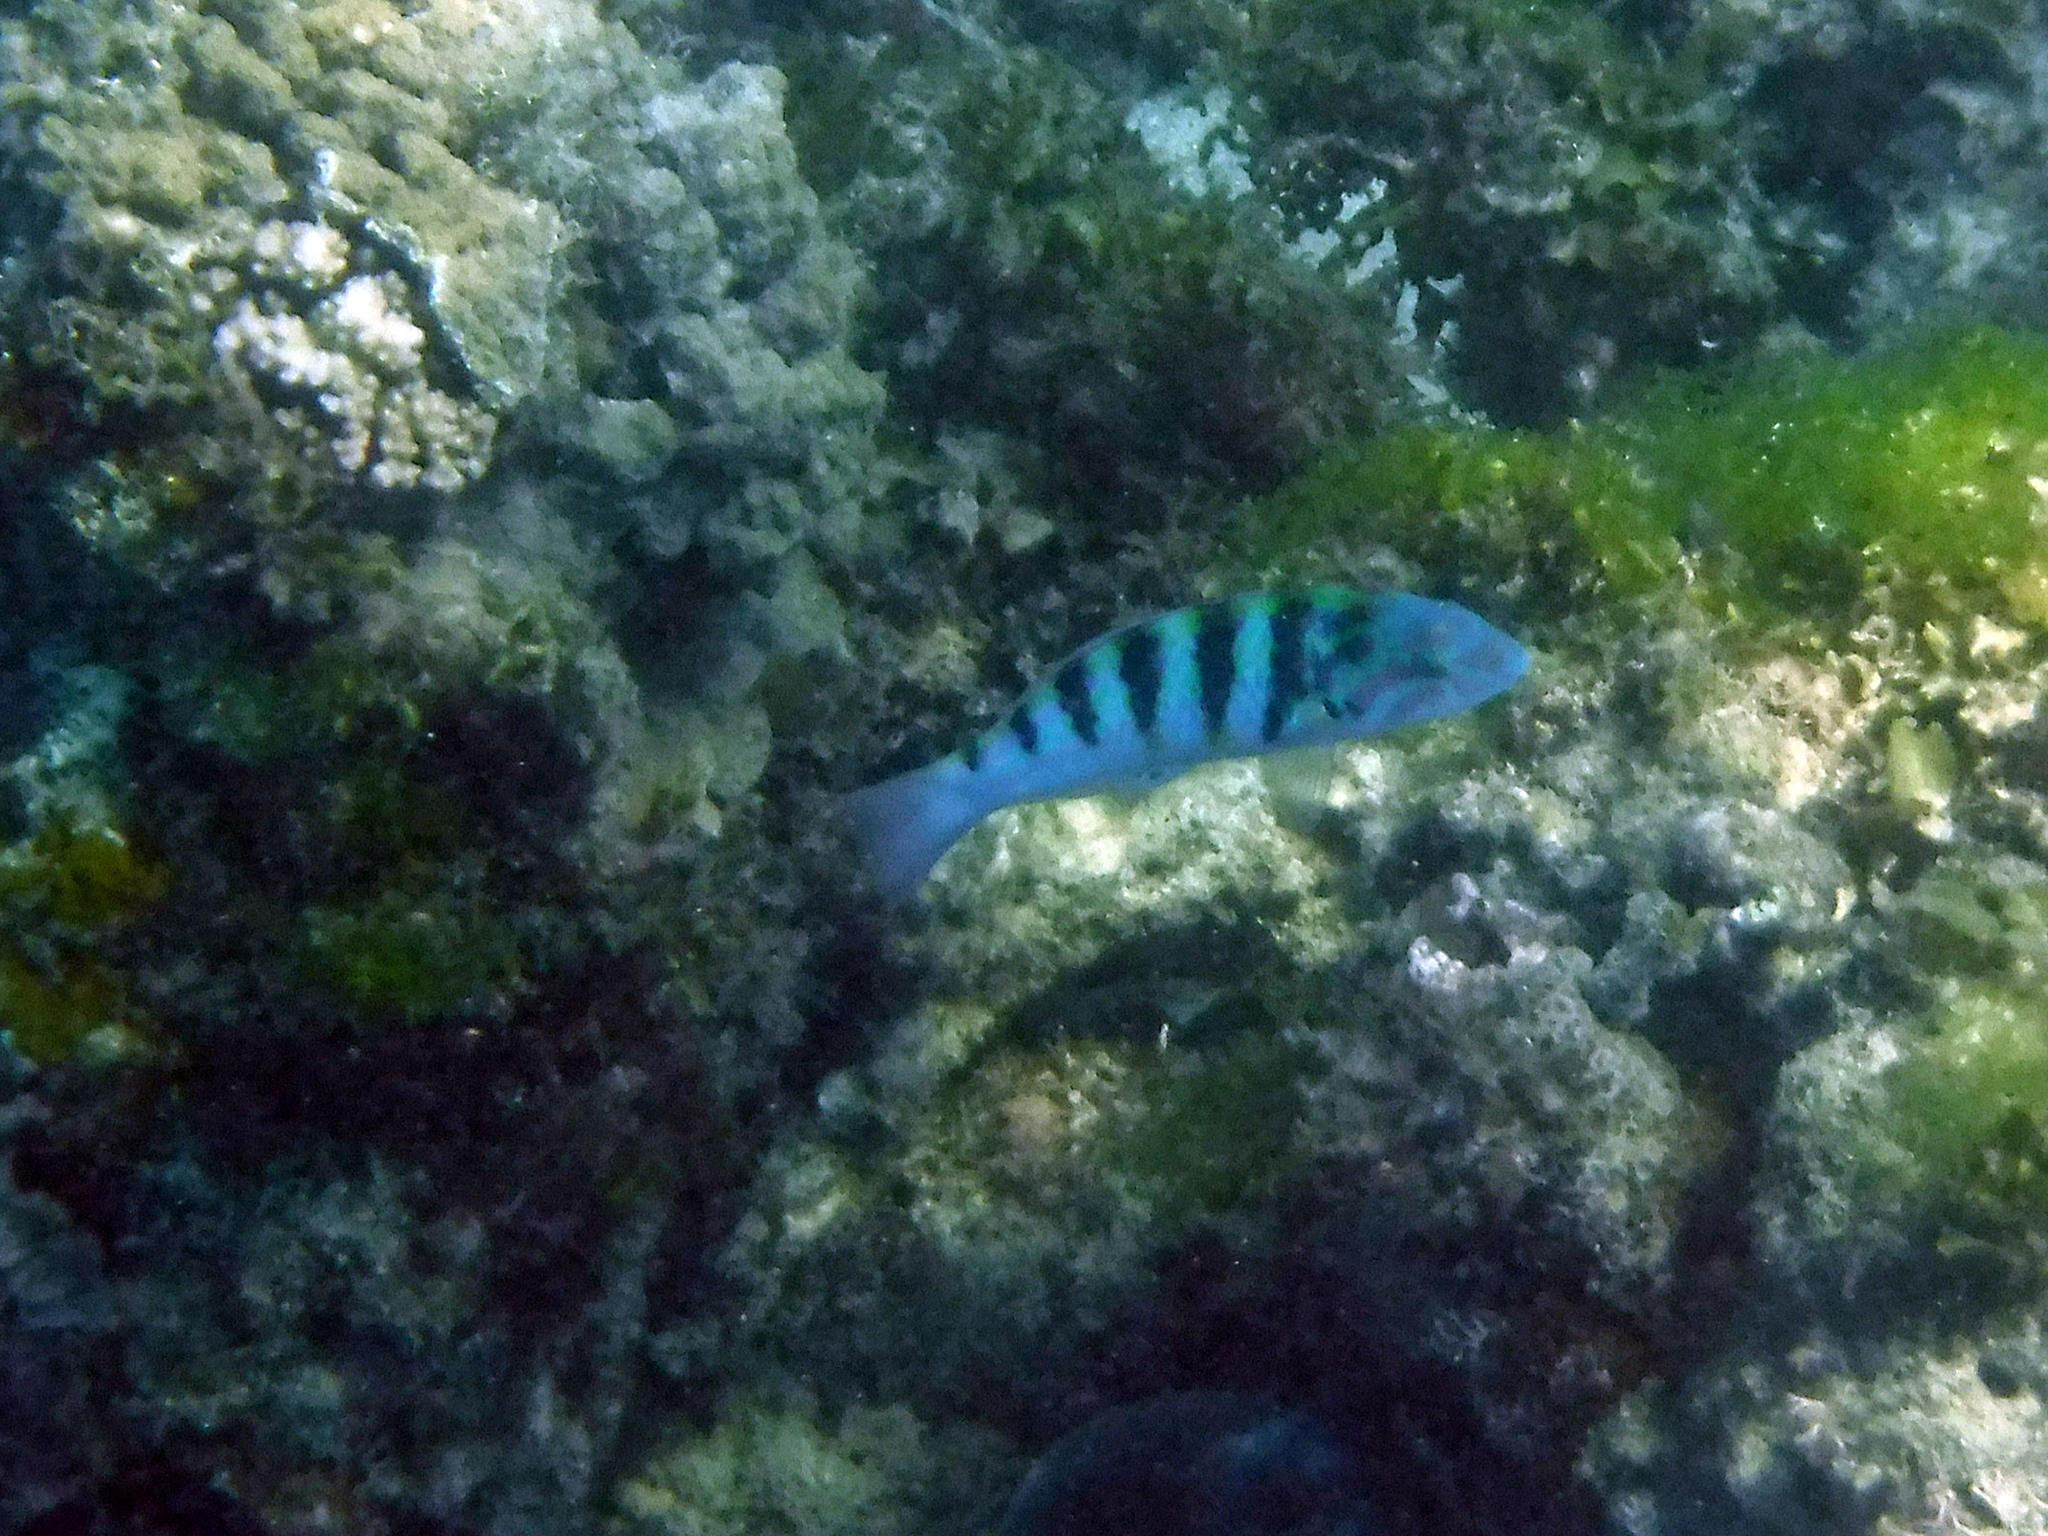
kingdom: Animalia
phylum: Chordata
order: Perciformes
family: Labridae
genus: Thalassoma
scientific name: Thalassoma hardwicke
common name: Sixbar wrasse
